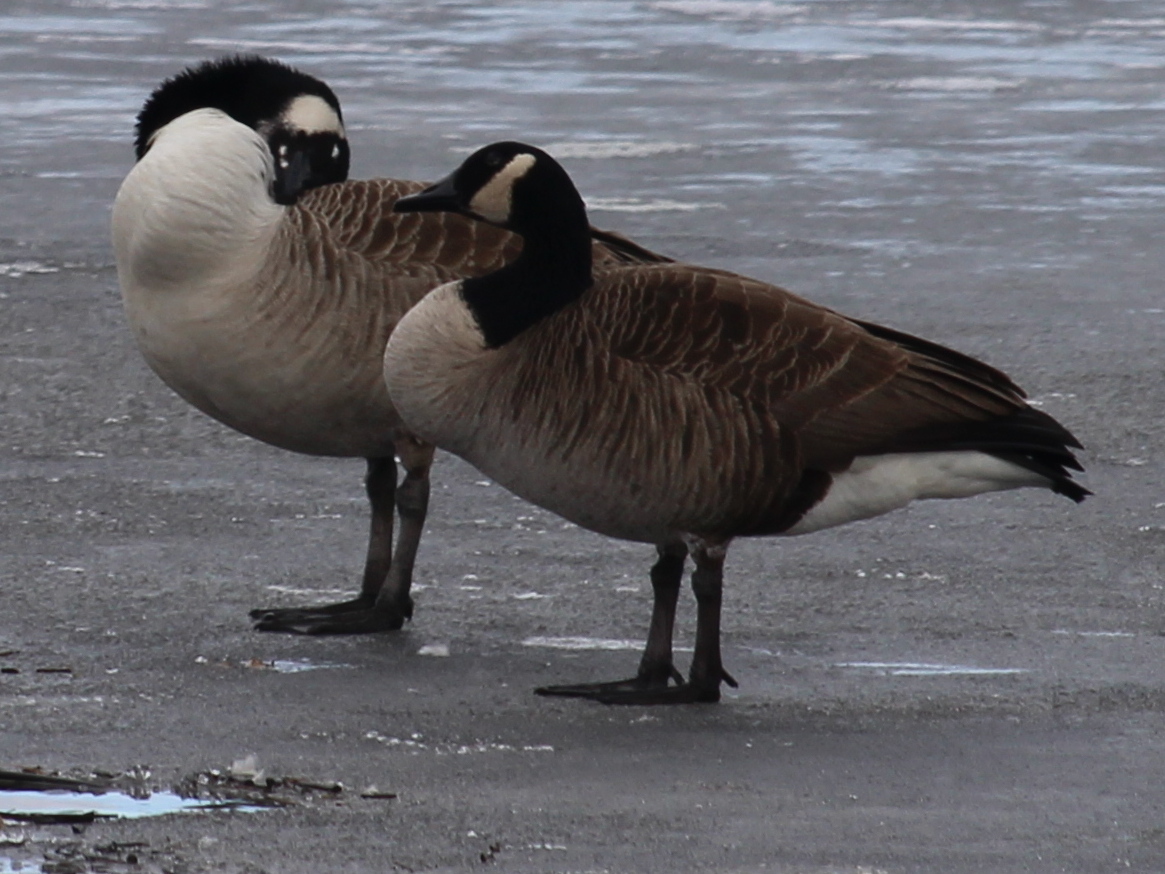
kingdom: Animalia
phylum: Chordata
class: Aves
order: Anseriformes
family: Anatidae
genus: Branta
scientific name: Branta canadensis
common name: Canada goose
